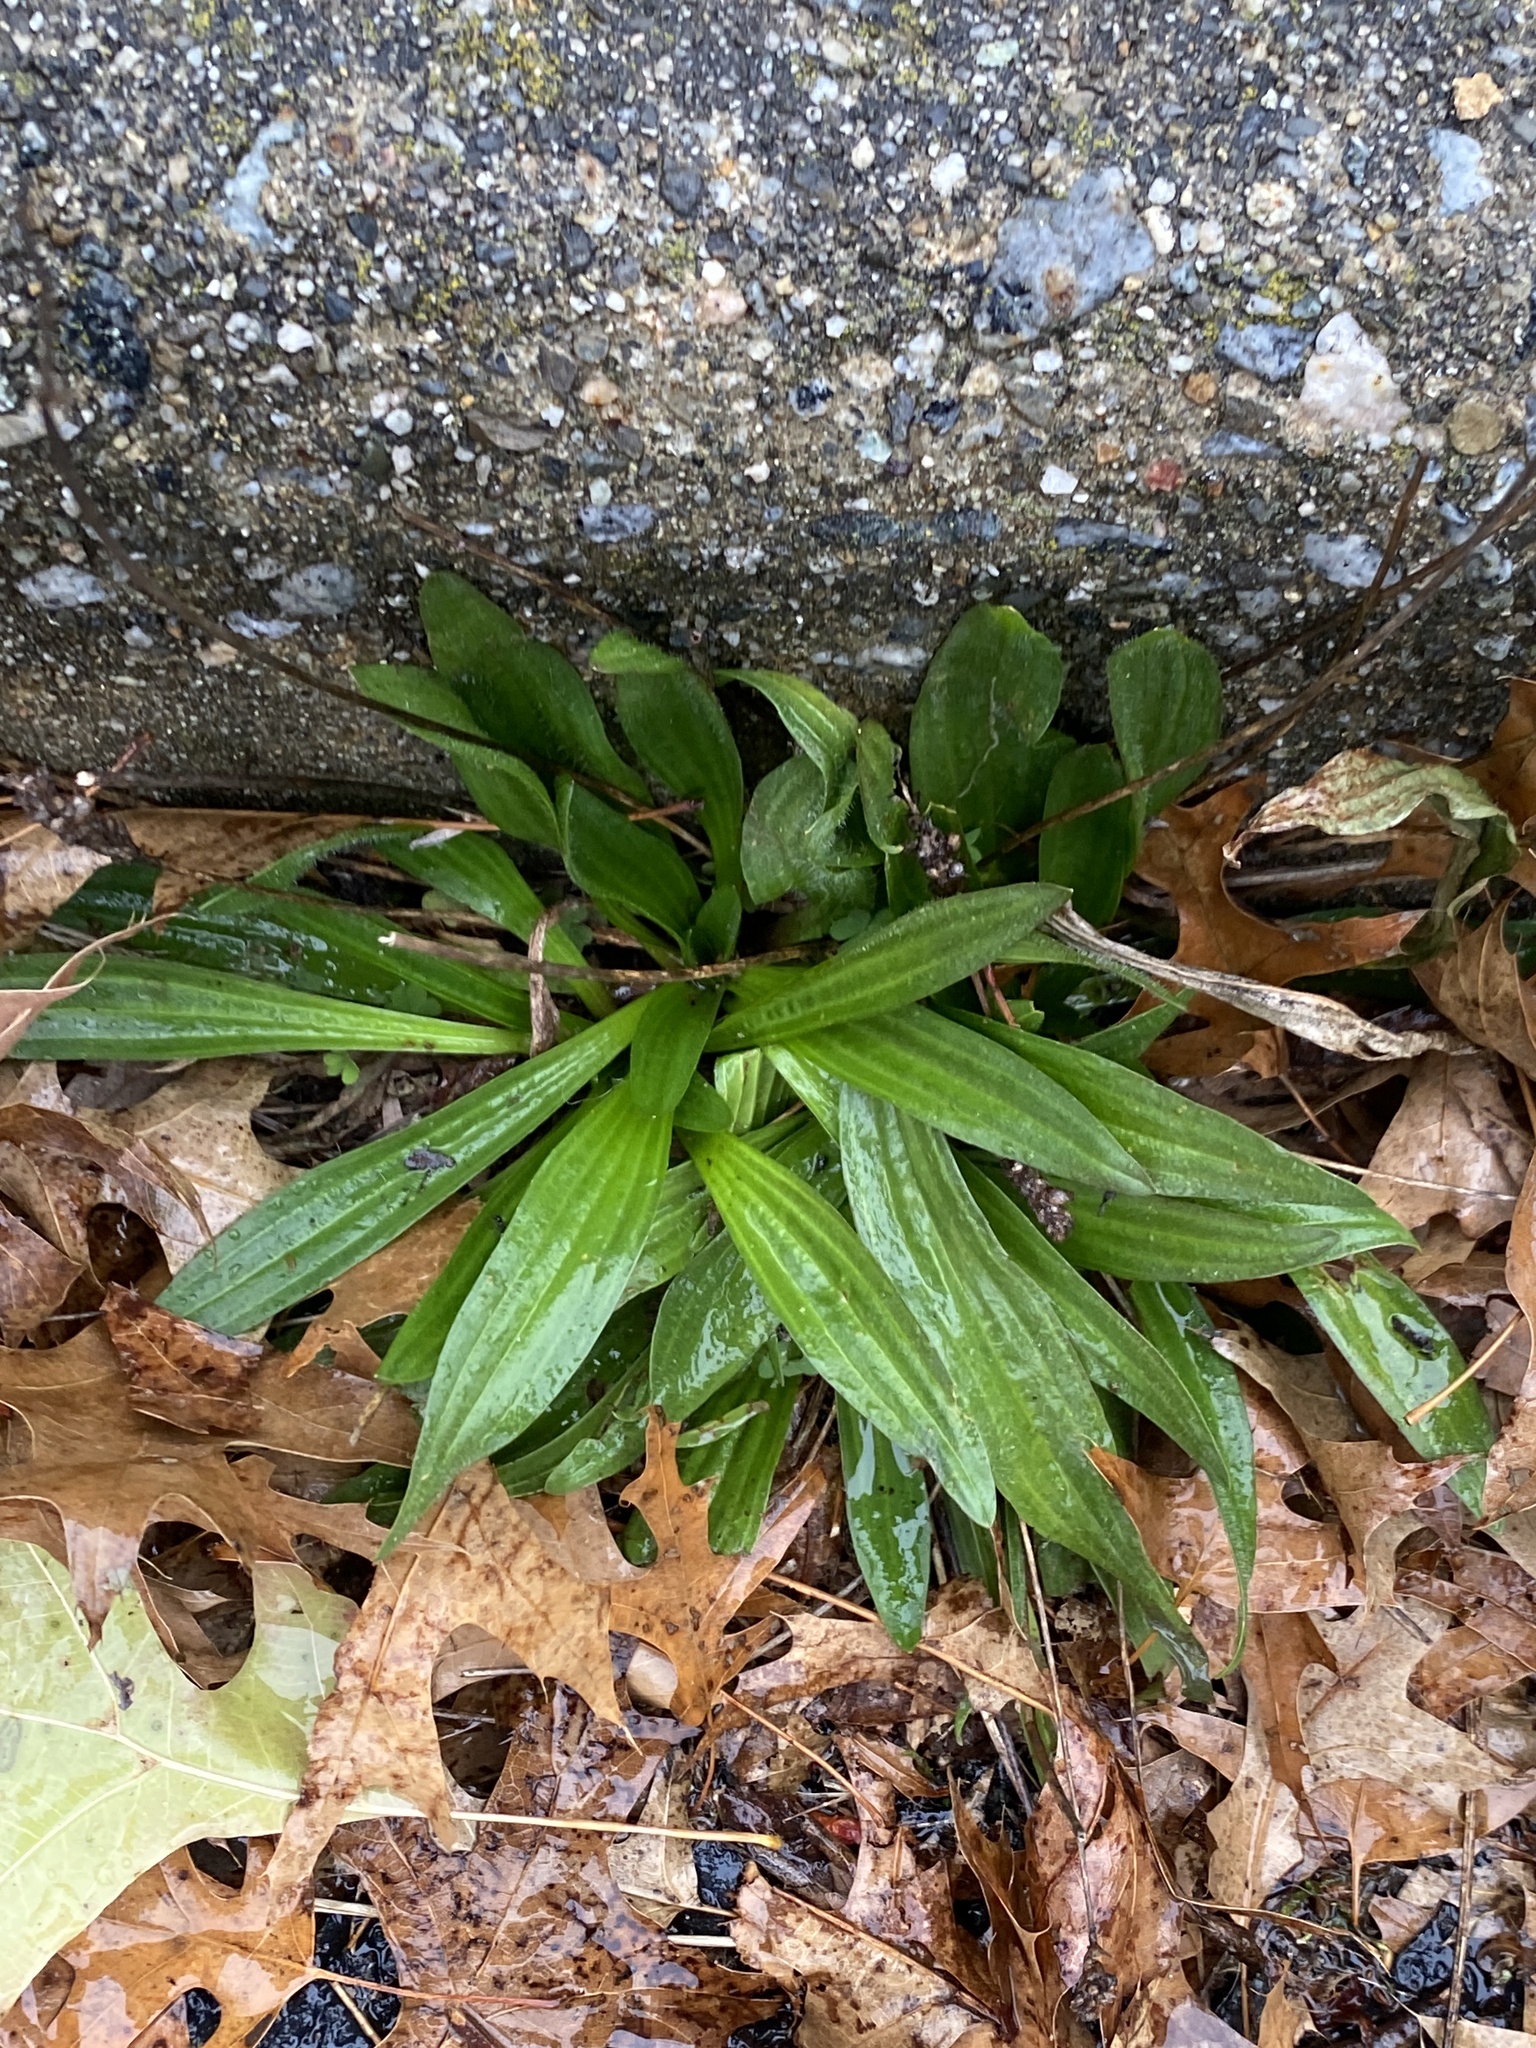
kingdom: Plantae
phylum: Tracheophyta
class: Magnoliopsida
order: Lamiales
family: Plantaginaceae
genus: Plantago
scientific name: Plantago lanceolata
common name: Ribwort plantain
